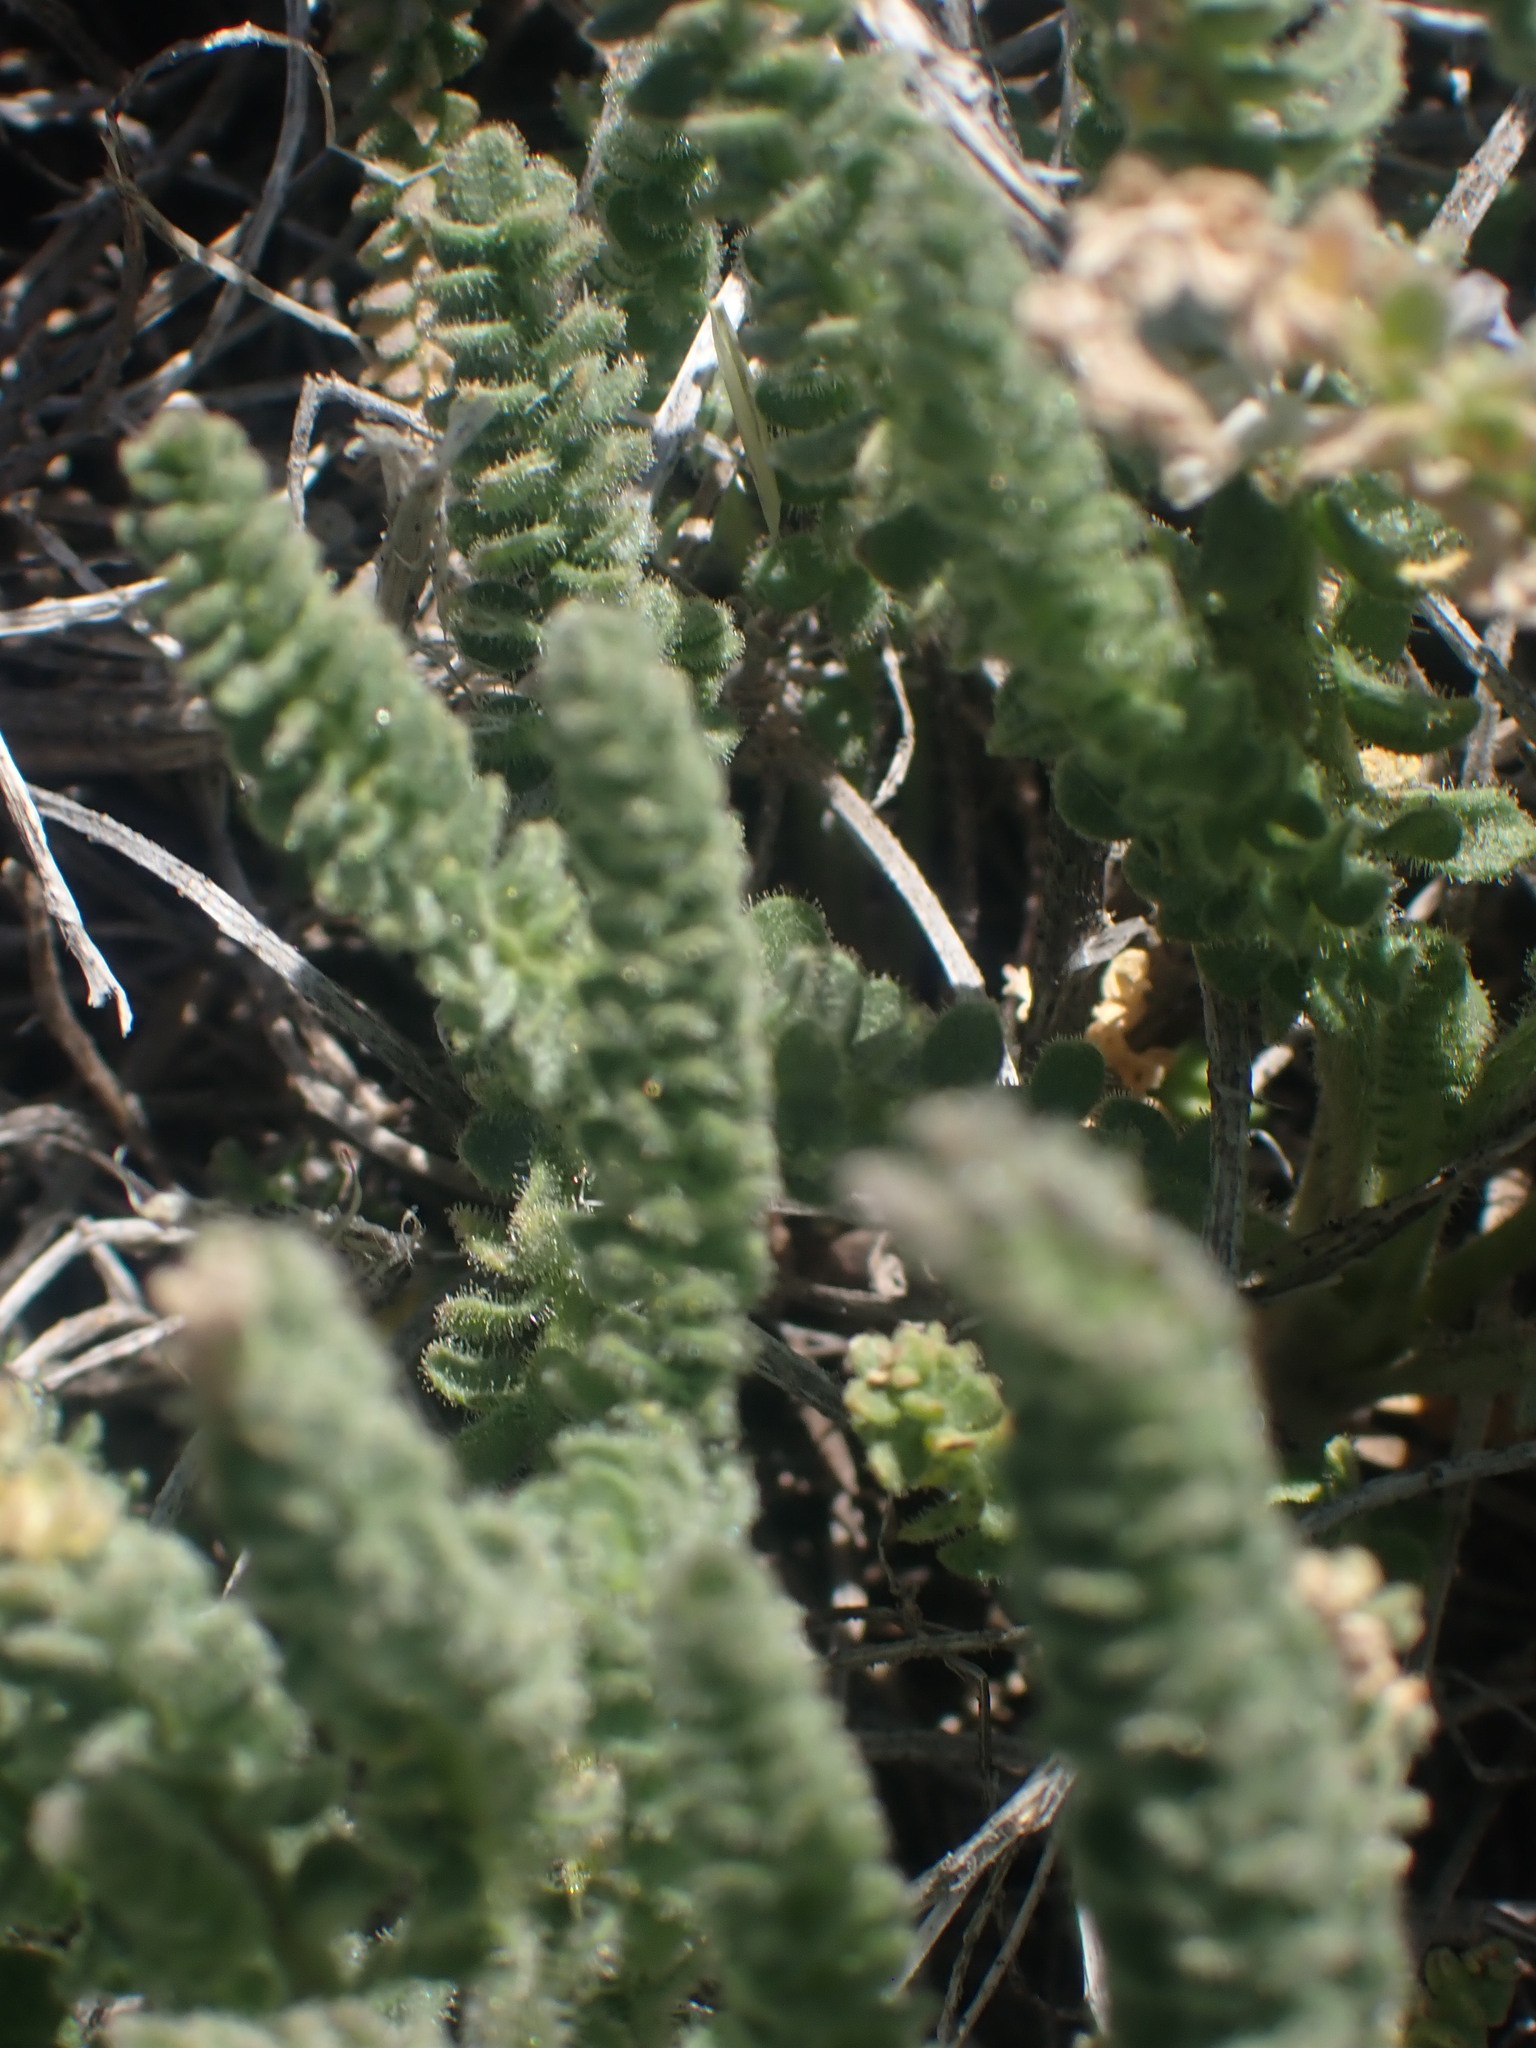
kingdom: Plantae
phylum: Tracheophyta
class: Magnoliopsida
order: Ericales
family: Polemoniaceae
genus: Polemonium
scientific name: Polemonium viscosum
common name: Skunk jacob's-ladder
